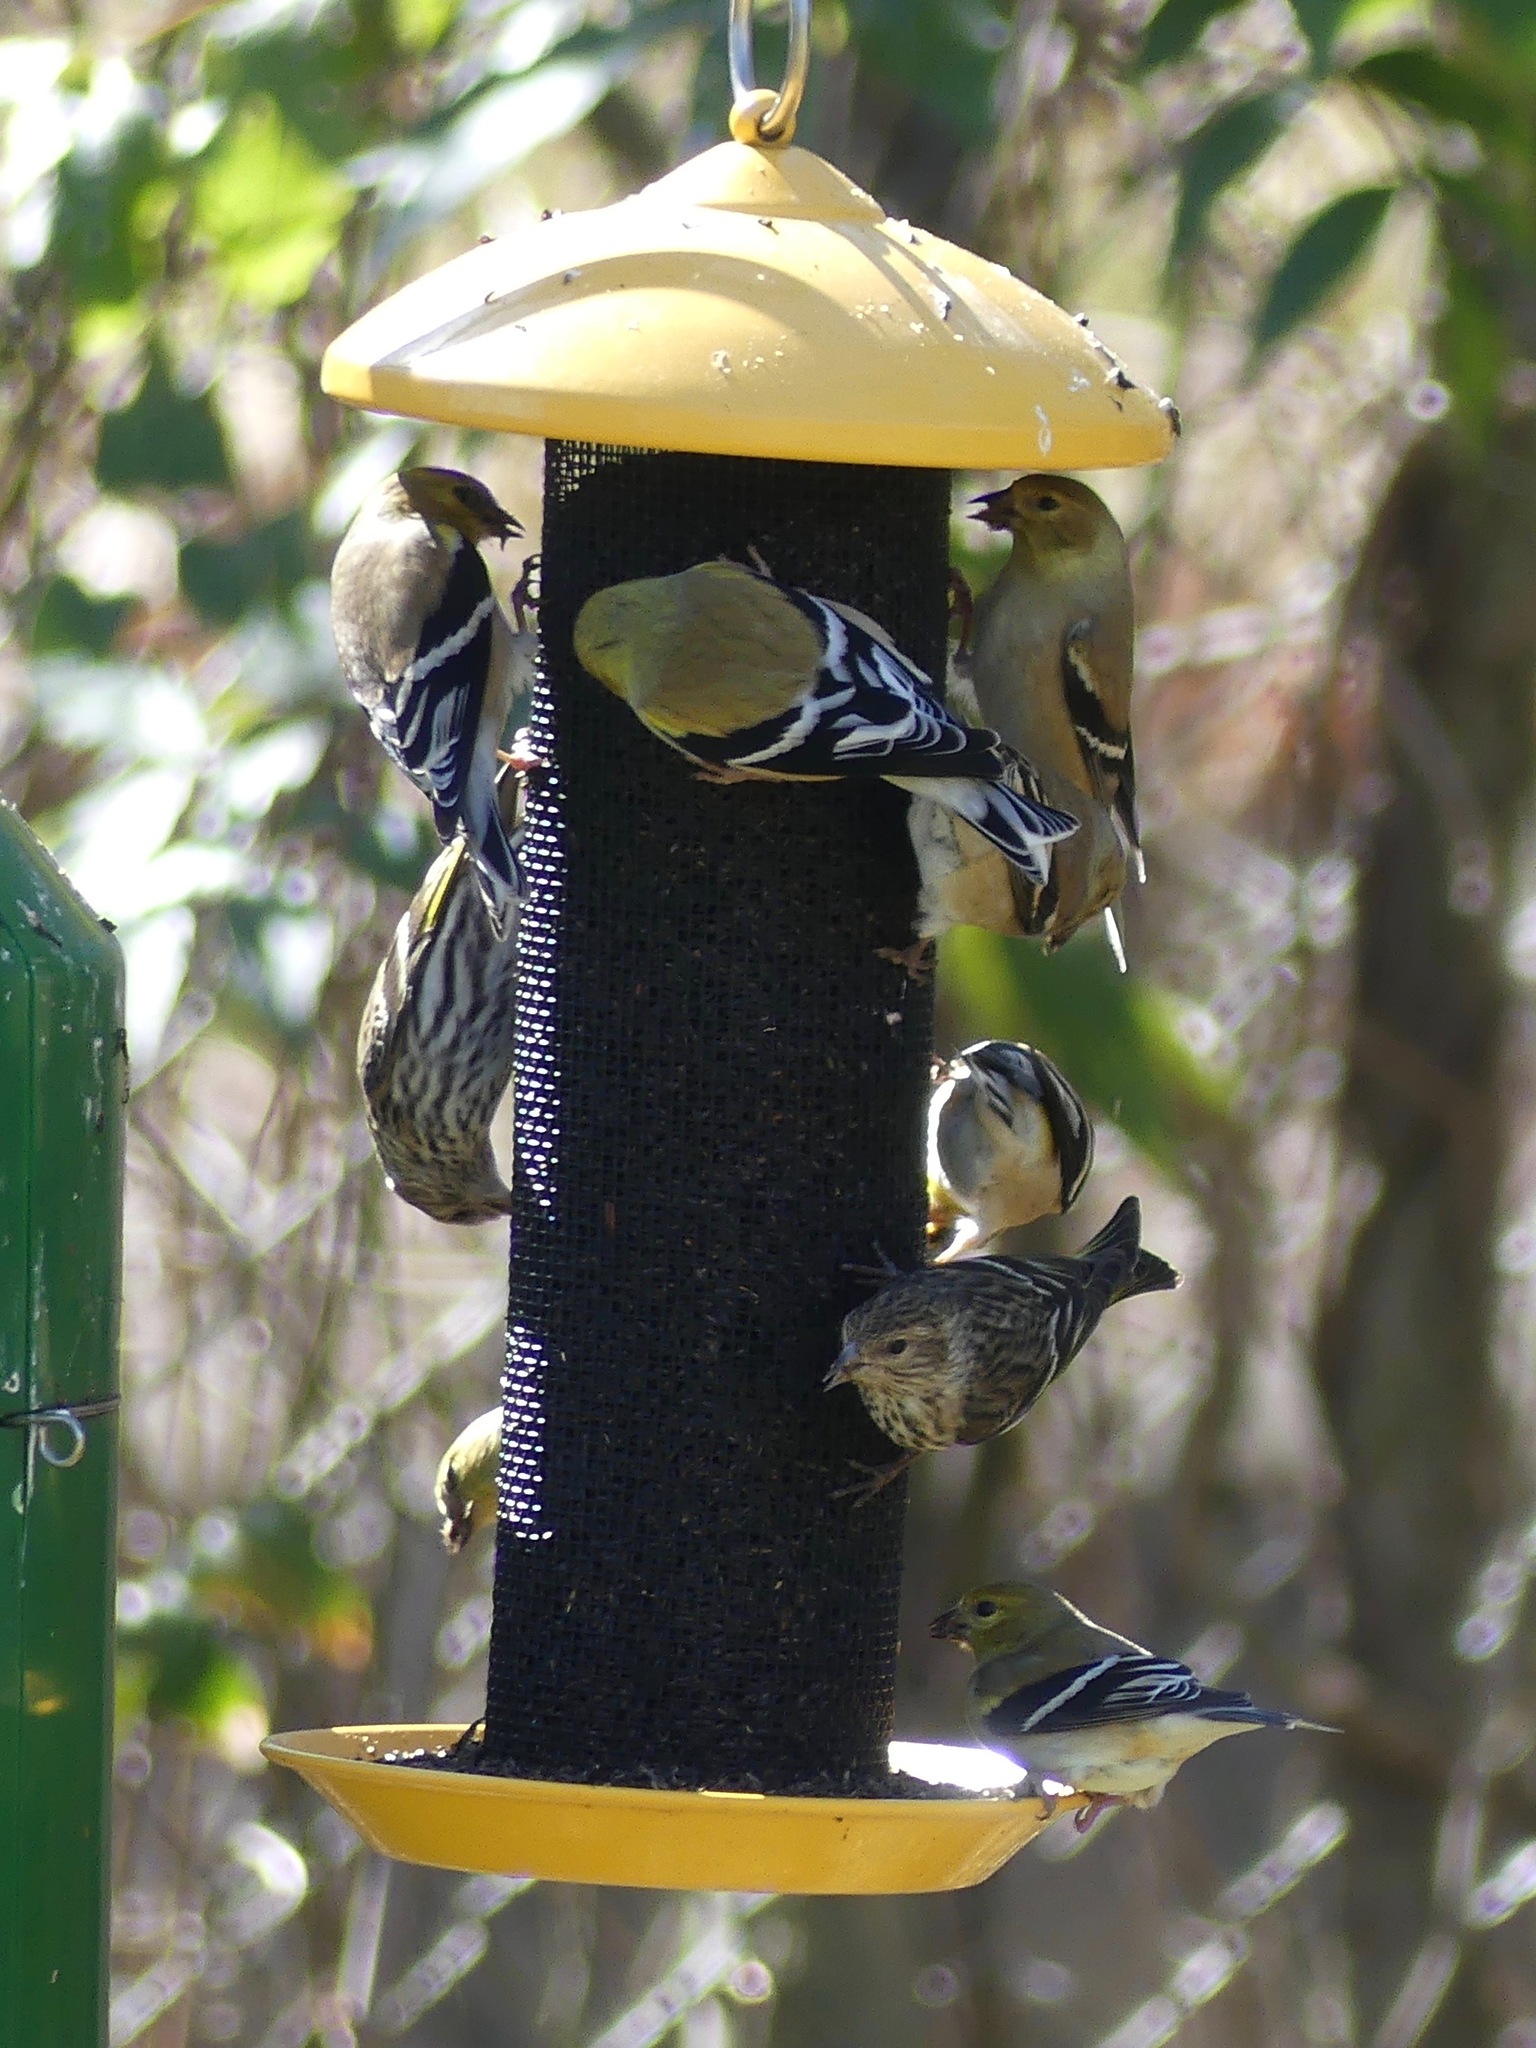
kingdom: Animalia
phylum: Chordata
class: Aves
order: Passeriformes
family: Fringillidae
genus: Spinus
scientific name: Spinus tristis
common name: American goldfinch
